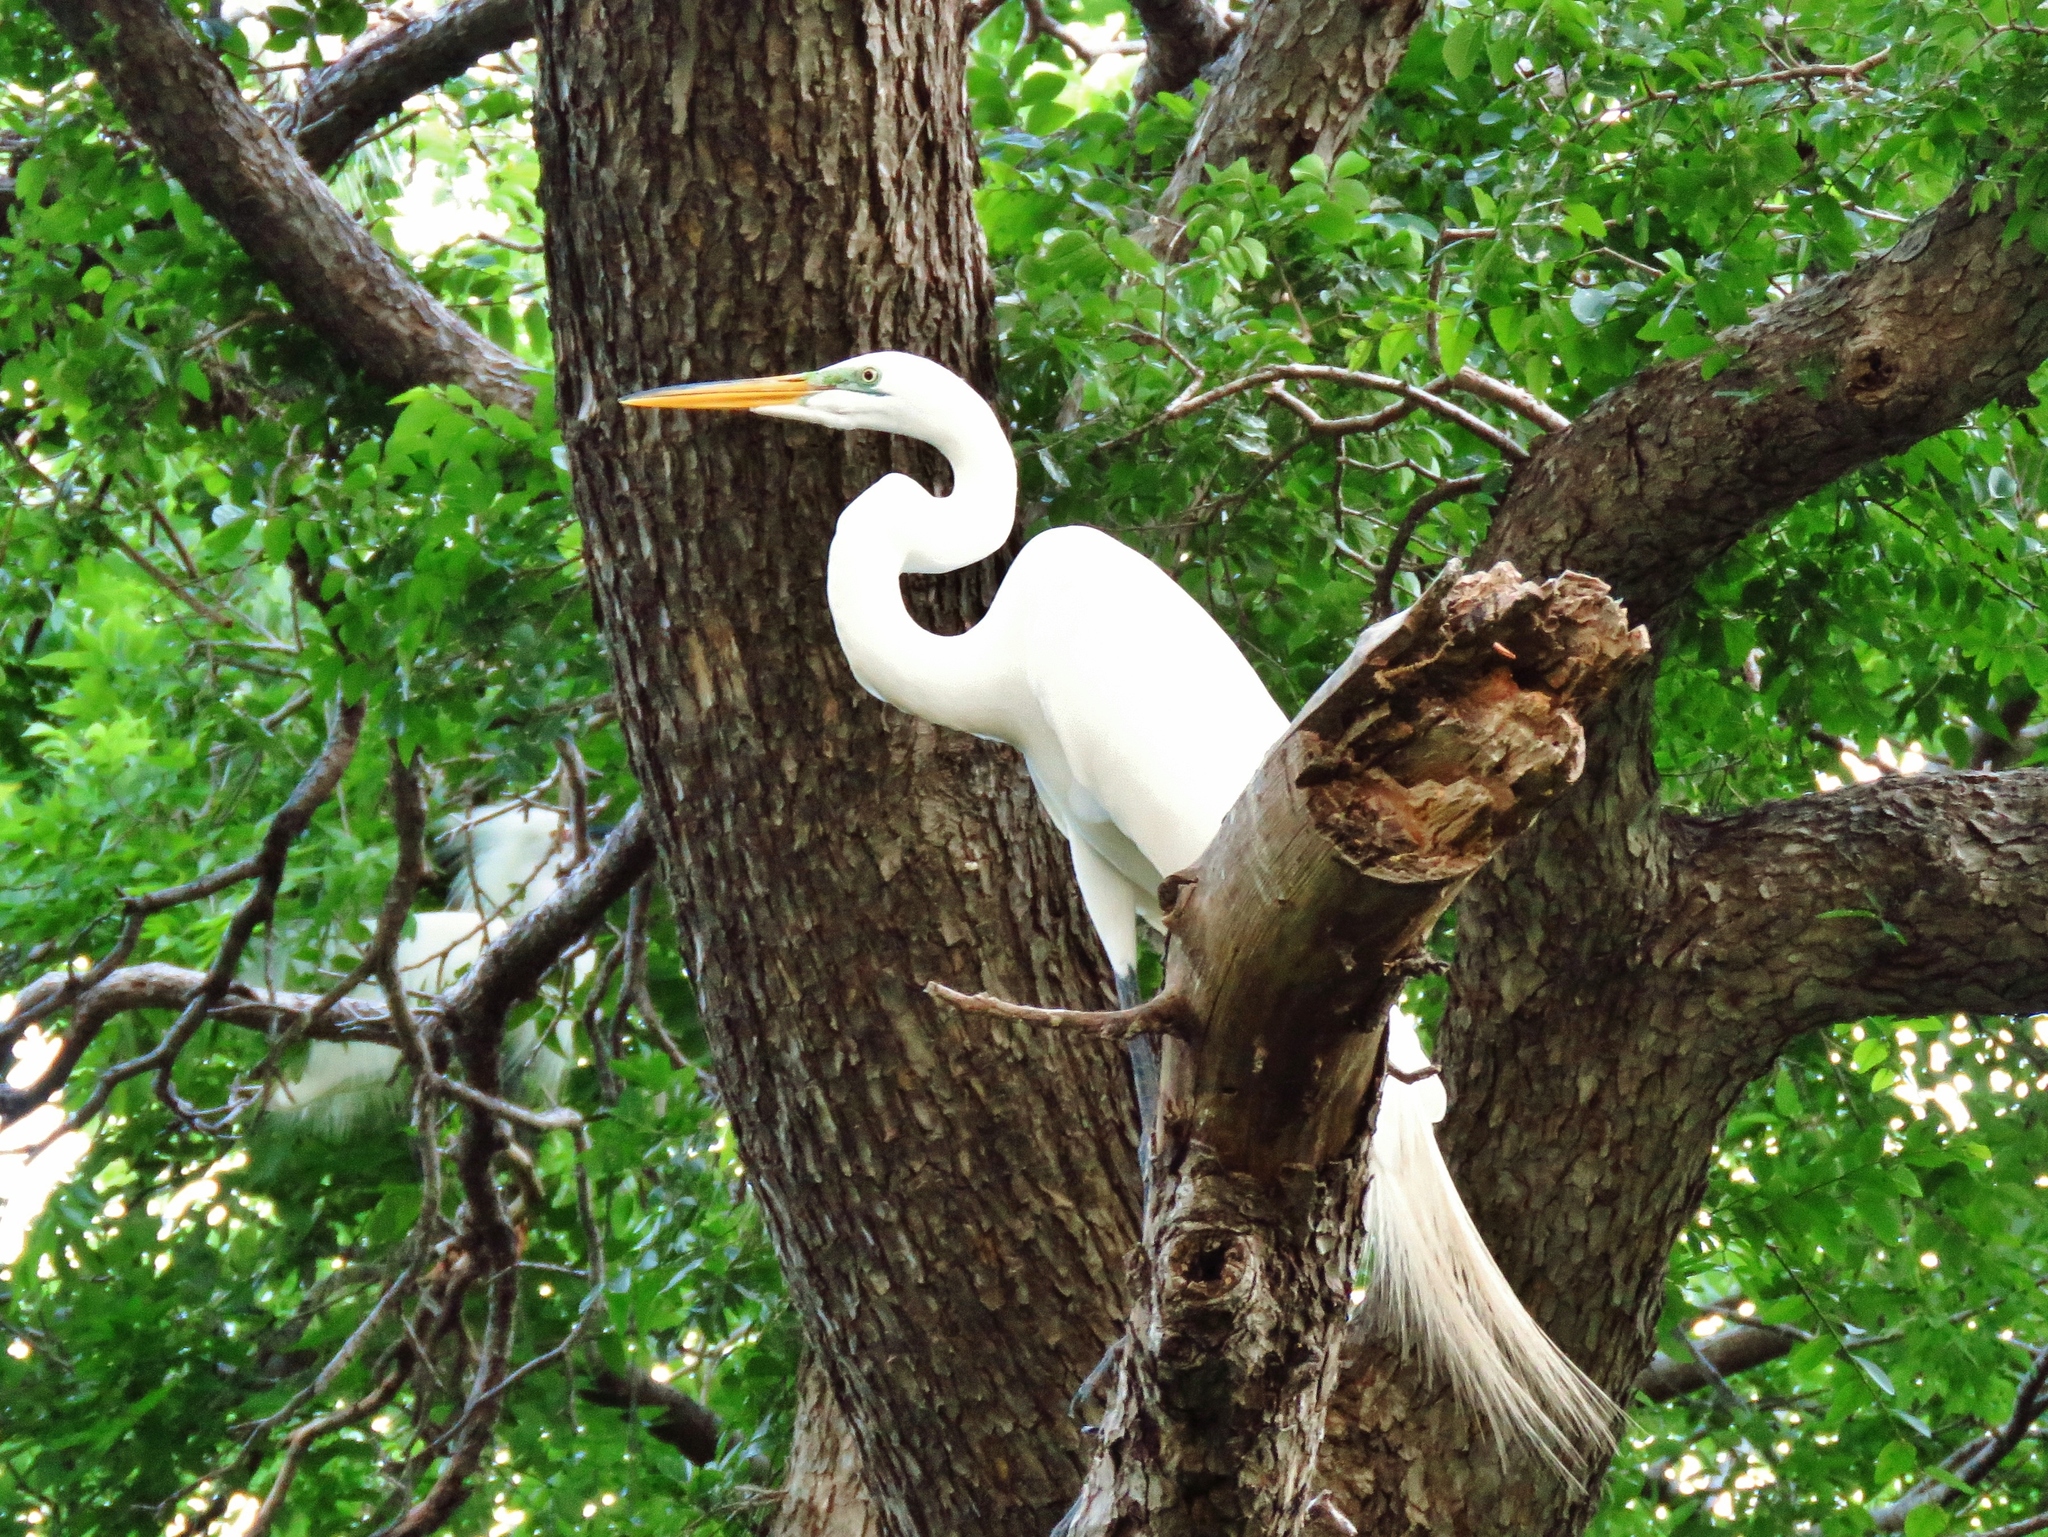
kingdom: Animalia
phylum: Chordata
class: Aves
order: Pelecaniformes
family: Ardeidae
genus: Ardea
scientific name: Ardea alba
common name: Great egret
